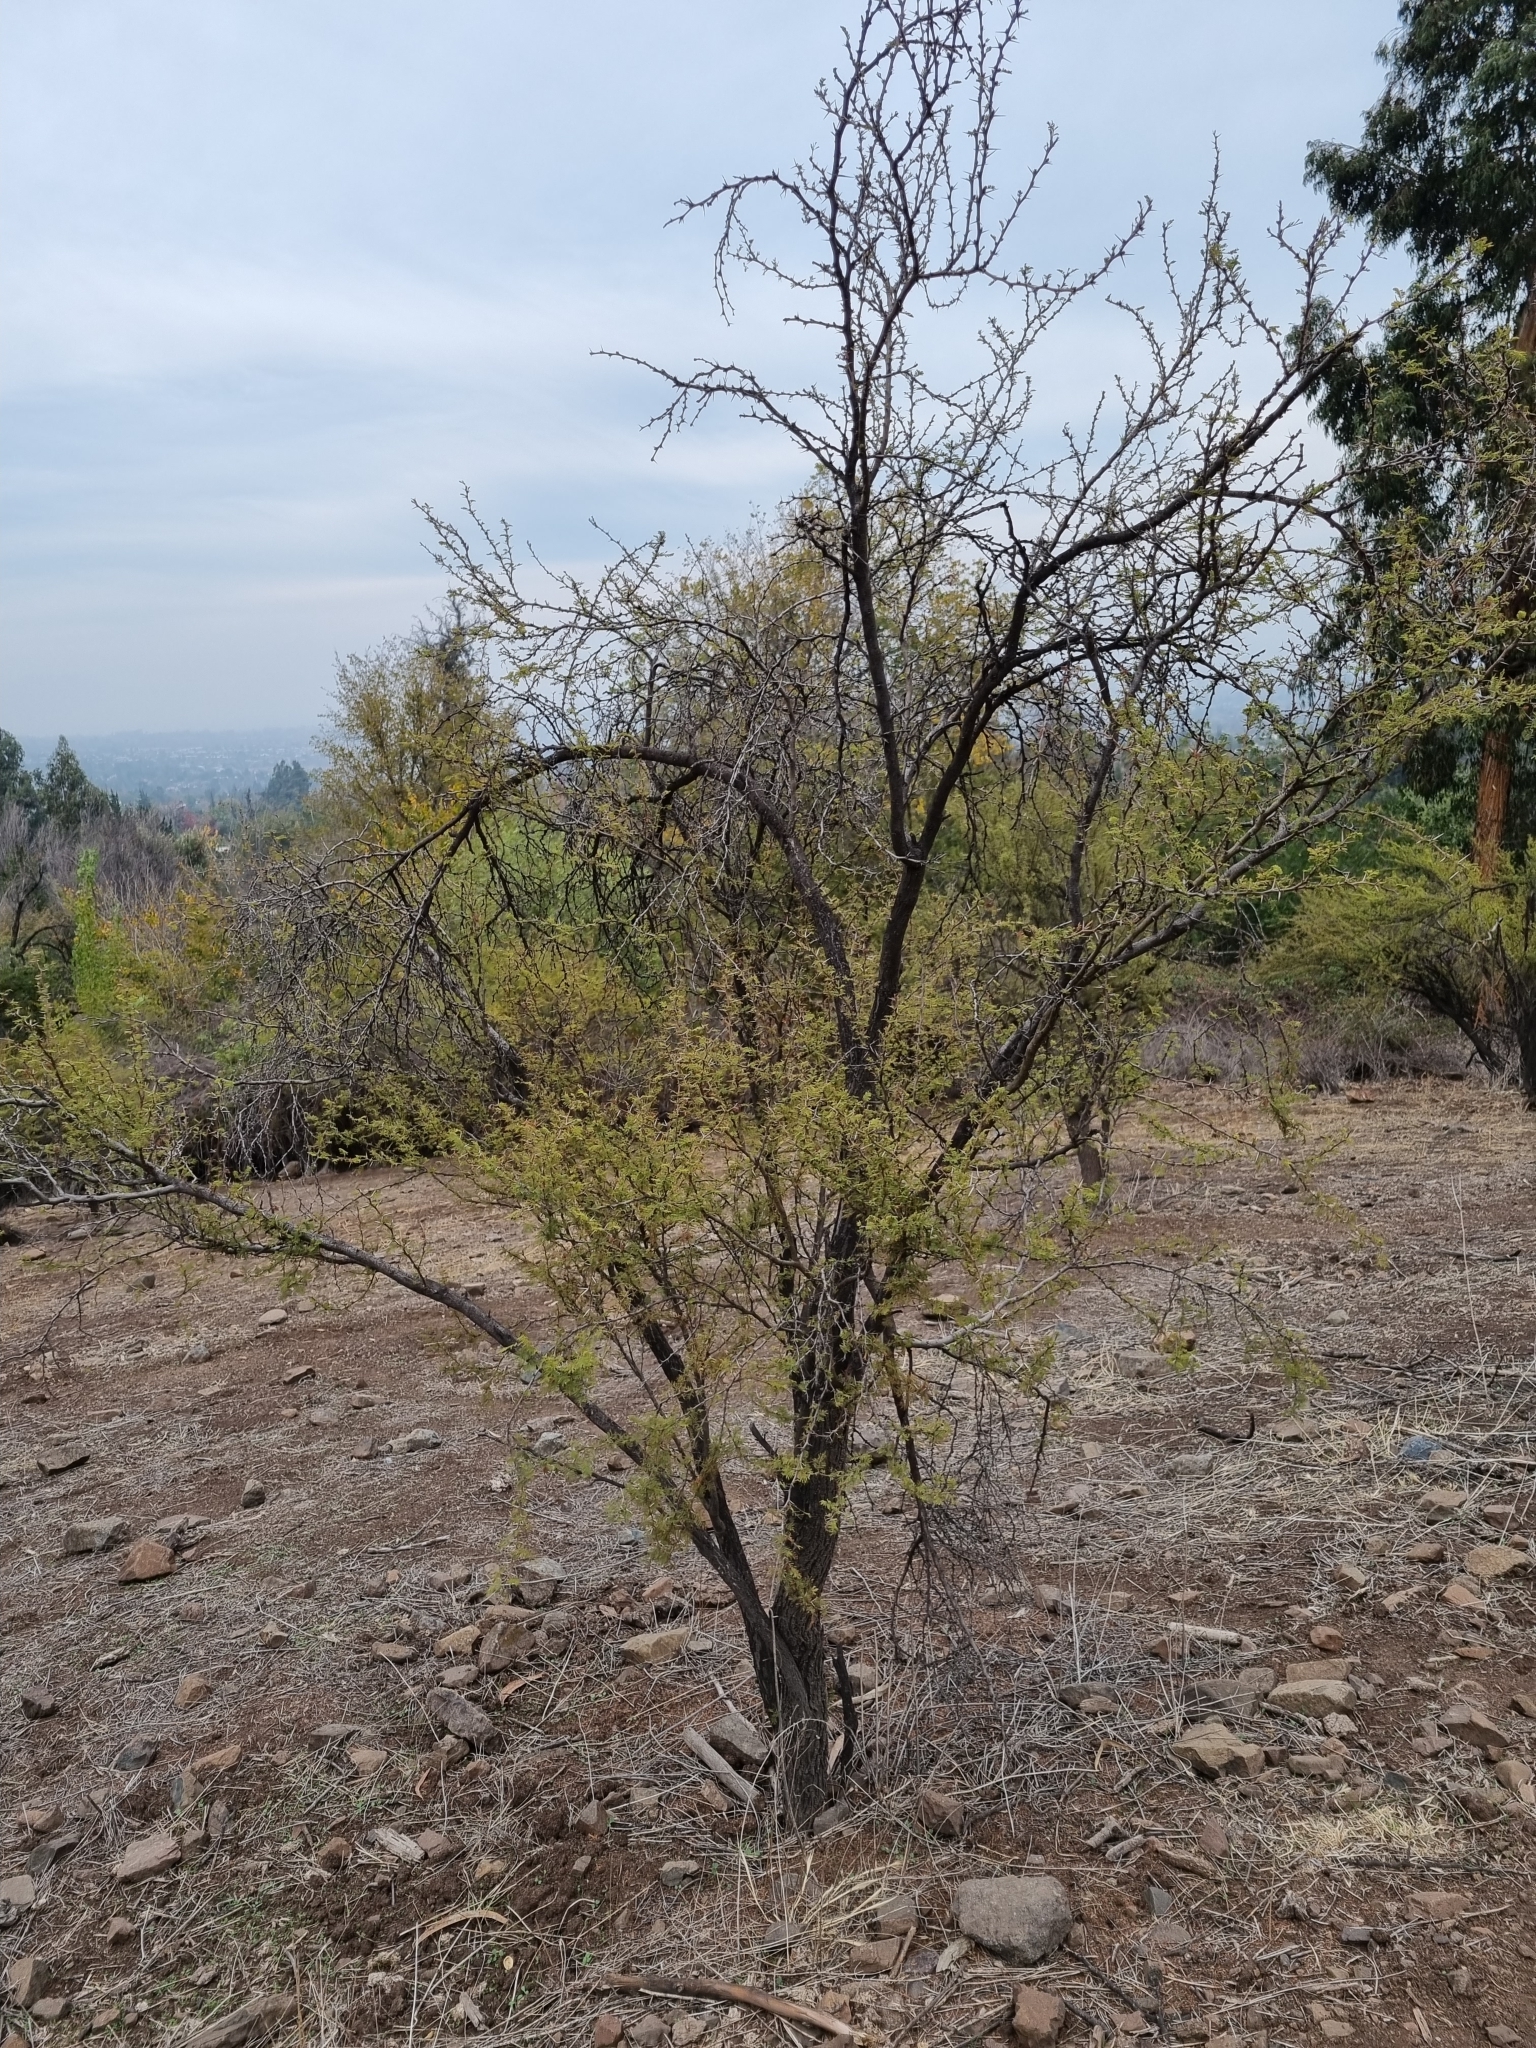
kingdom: Plantae
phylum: Tracheophyta
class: Magnoliopsida
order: Fabales
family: Fabaceae
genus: Vachellia
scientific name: Vachellia caven
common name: Roman cassie
